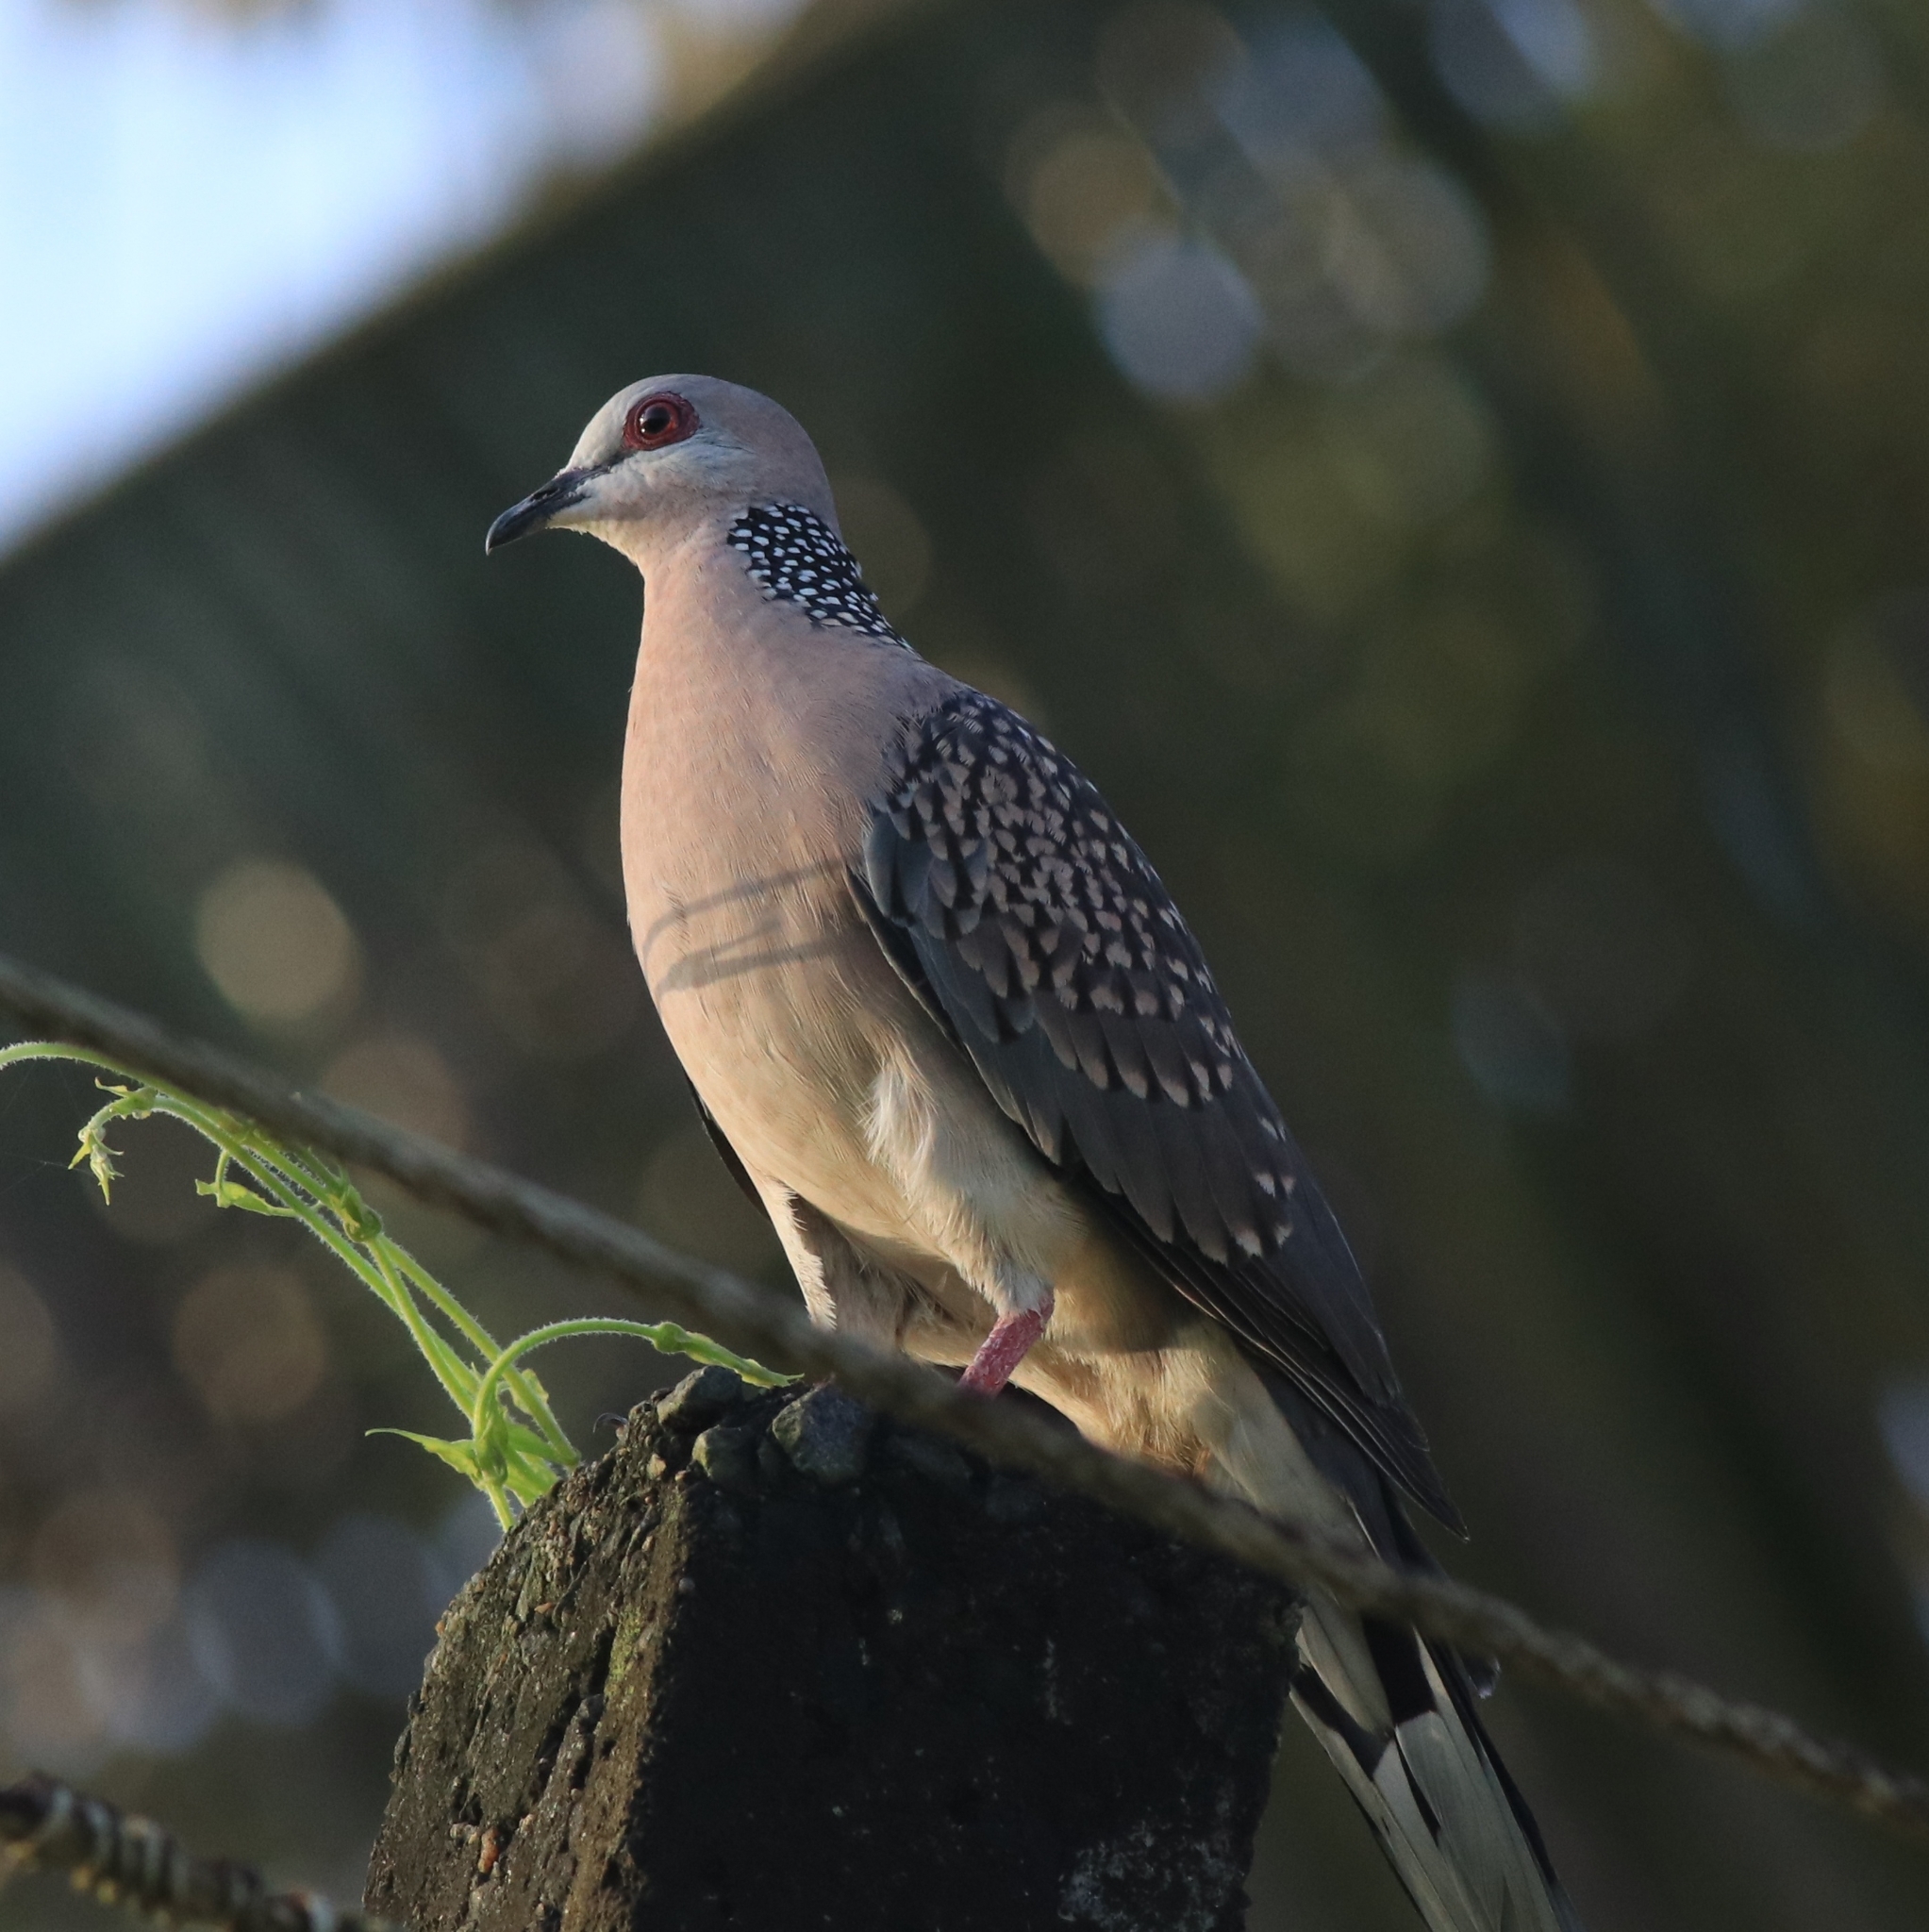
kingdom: Animalia
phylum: Chordata
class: Aves
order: Columbiformes
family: Columbidae
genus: Spilopelia
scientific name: Spilopelia chinensis
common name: Spotted dove
